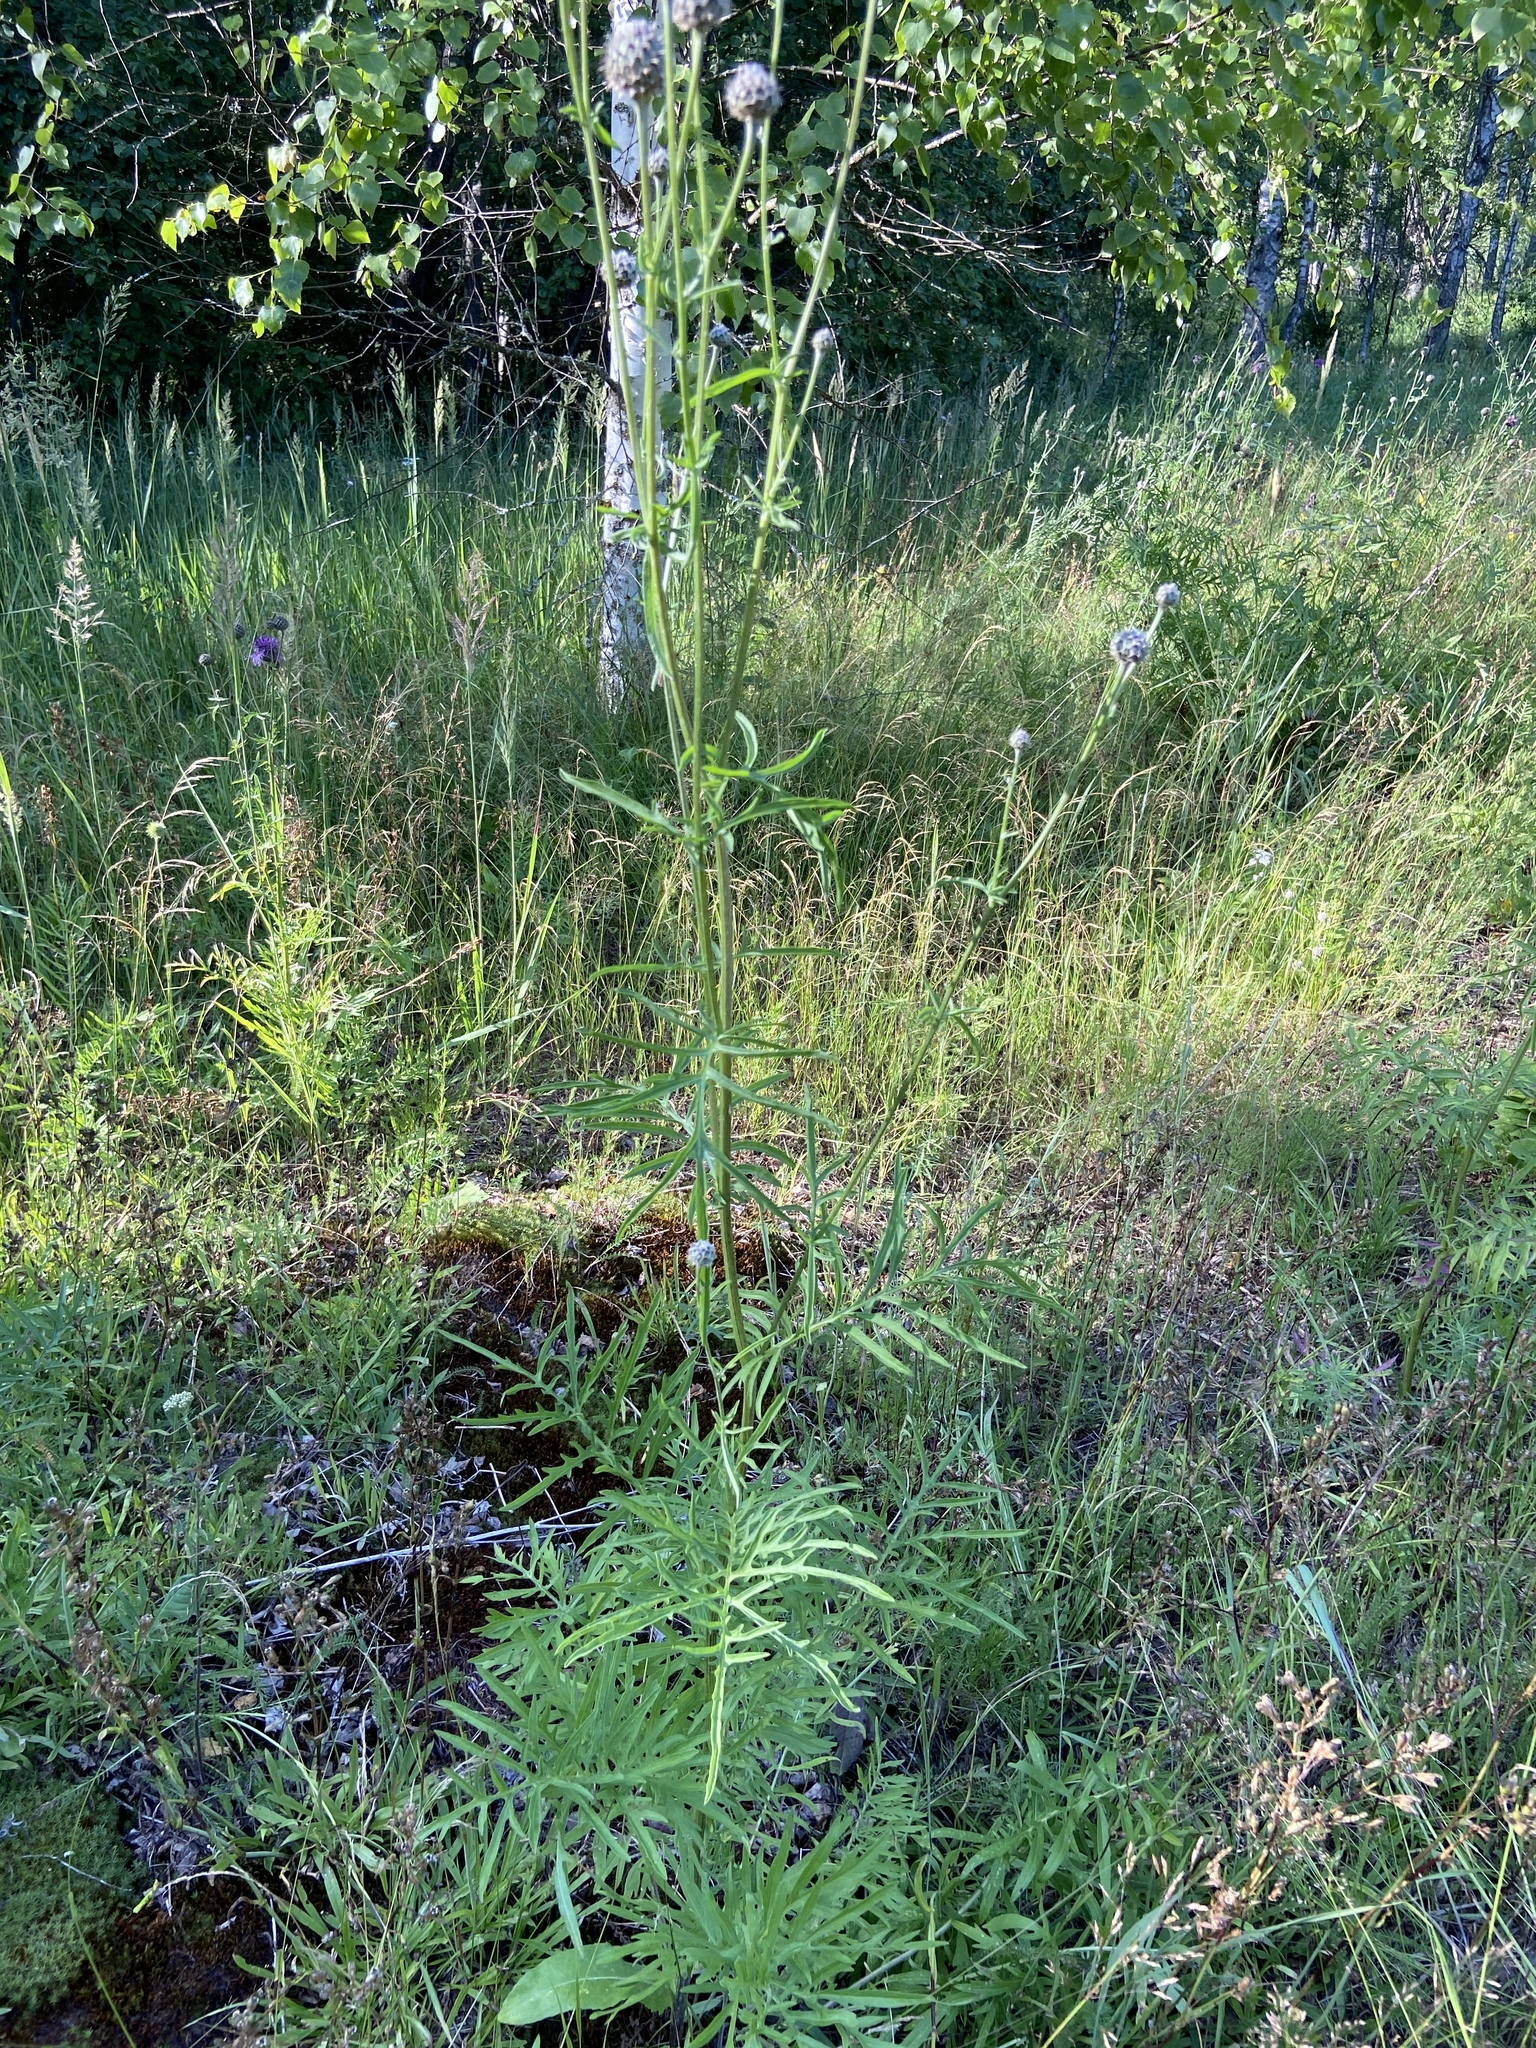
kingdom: Plantae
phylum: Tracheophyta
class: Magnoliopsida
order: Asterales
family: Asteraceae
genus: Centaurea
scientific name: Centaurea scabiosa
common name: Greater knapweed
